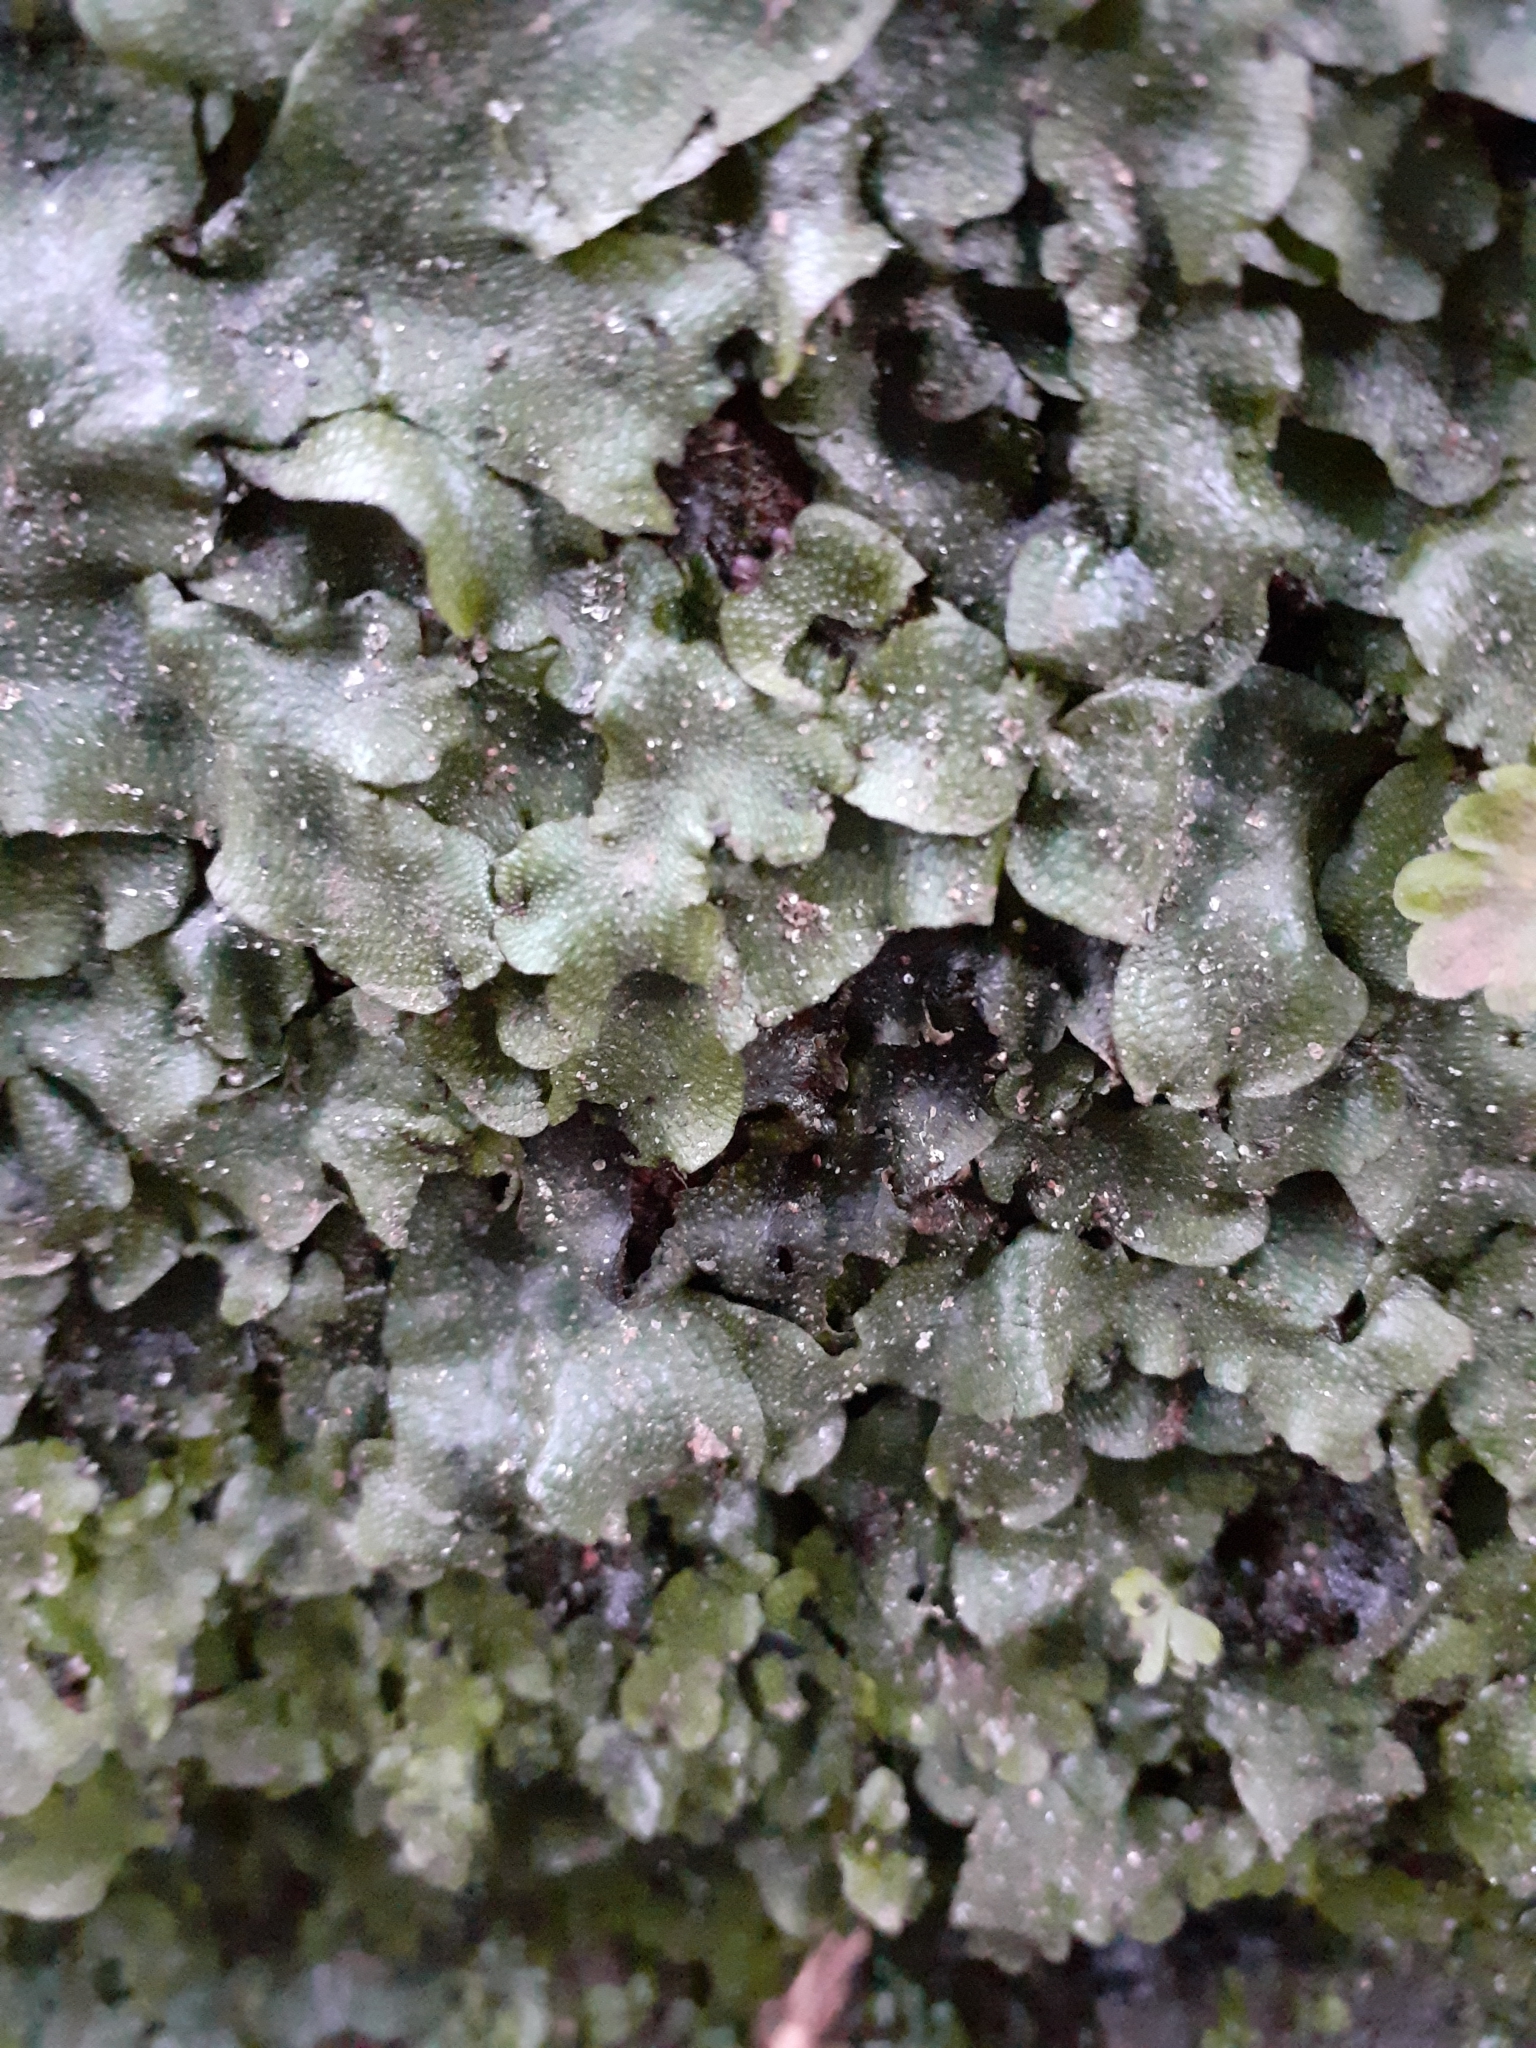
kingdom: Plantae
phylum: Marchantiophyta
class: Marchantiopsida
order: Marchantiales
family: Conocephalaceae
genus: Conocephalum
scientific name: Conocephalum conicum
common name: Great scented liverwort
